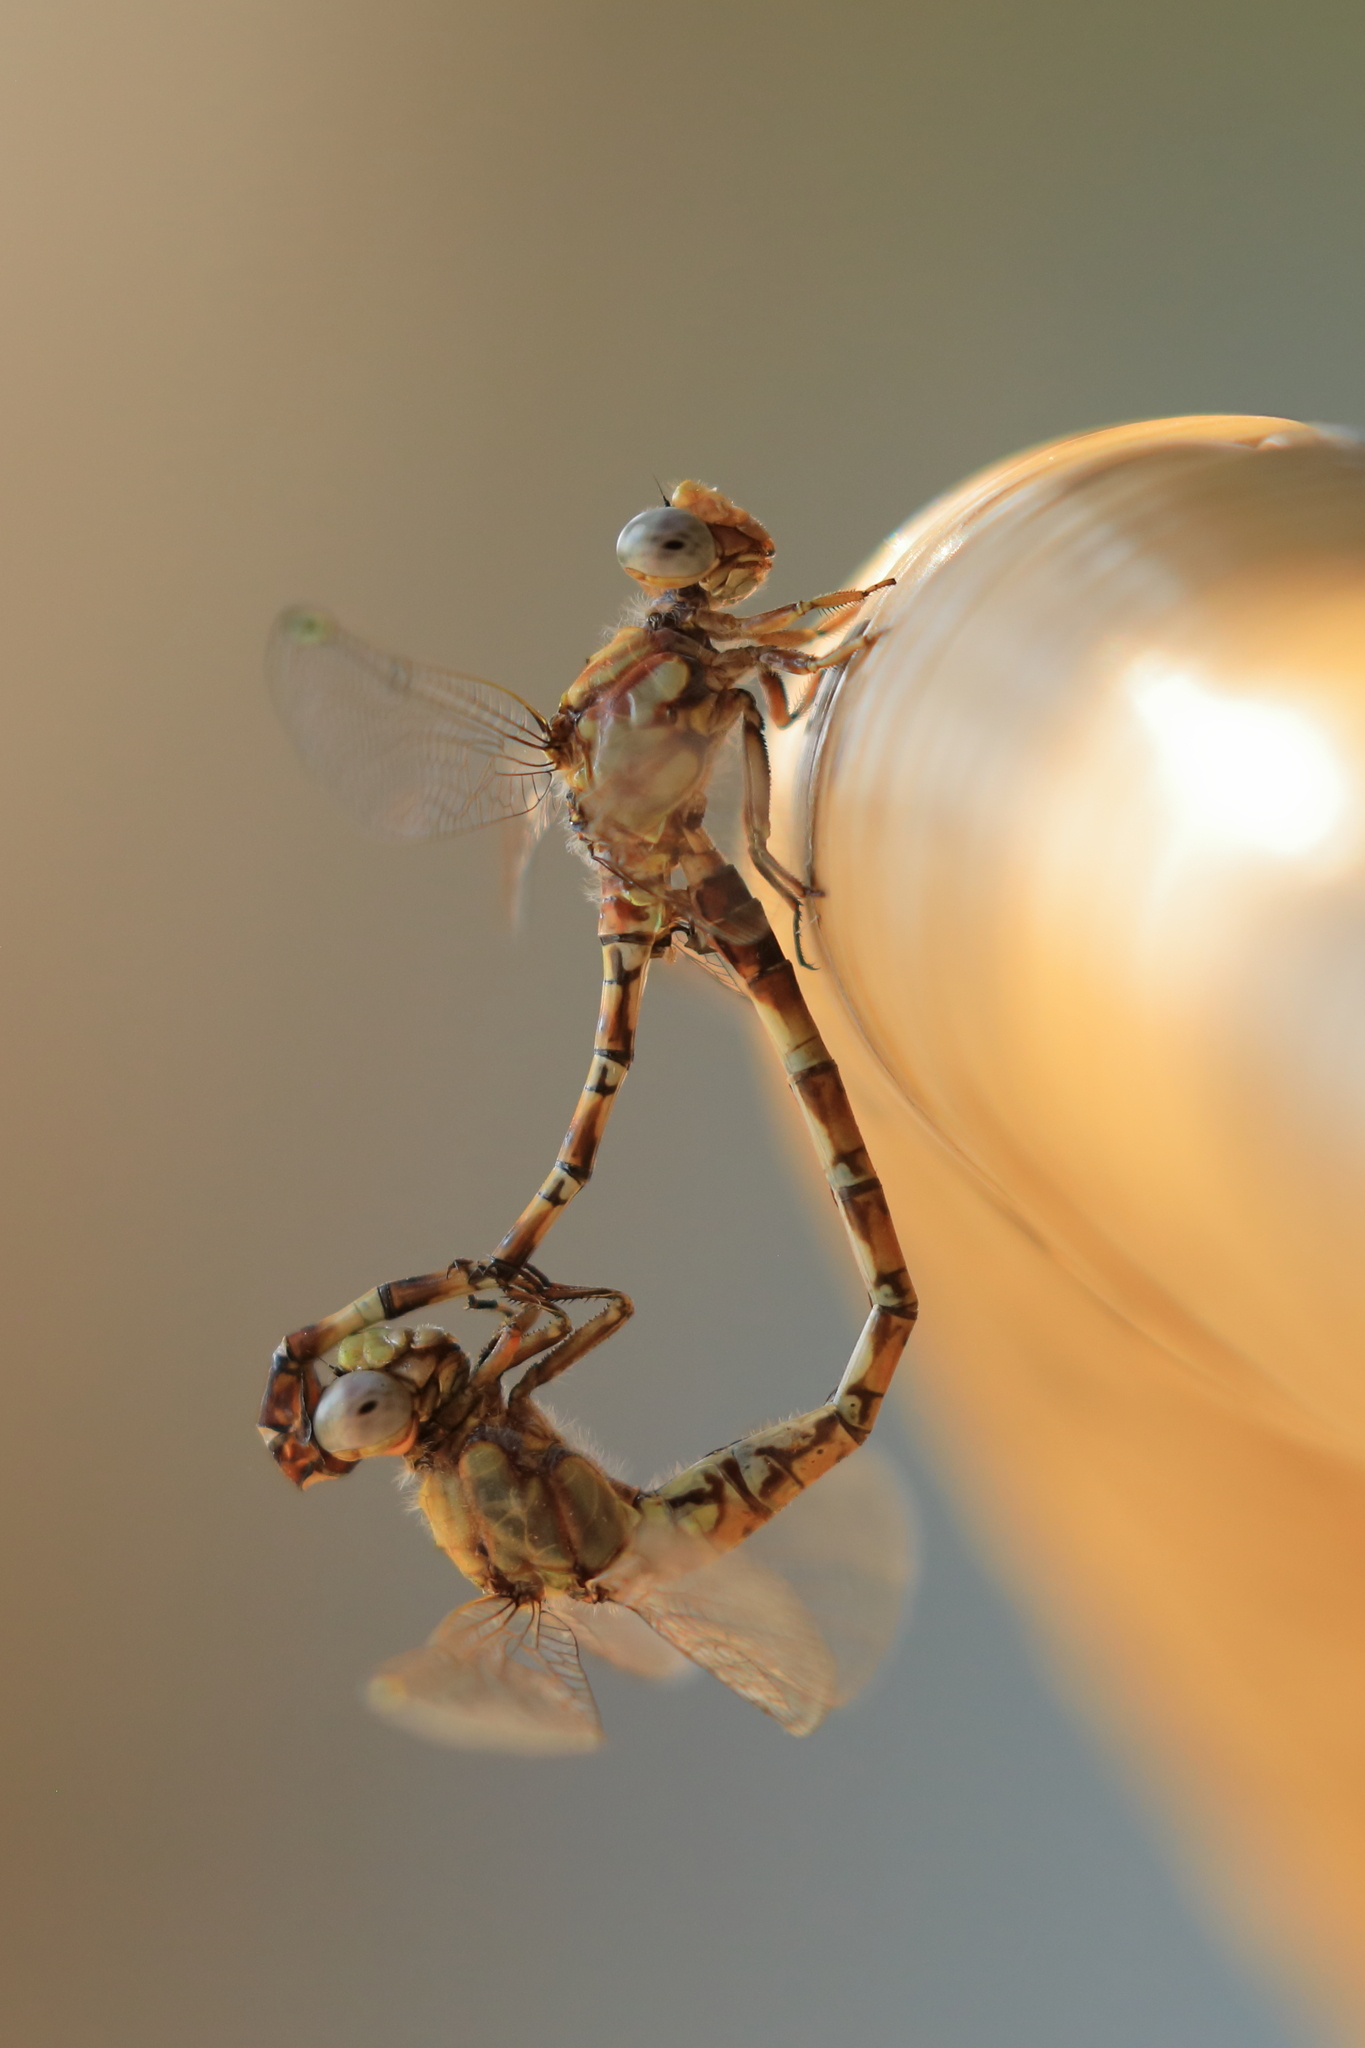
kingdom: Animalia
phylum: Arthropoda
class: Insecta
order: Odonata
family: Gomphidae
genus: Paragomphus
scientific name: Paragomphus genei
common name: Common hooktail
